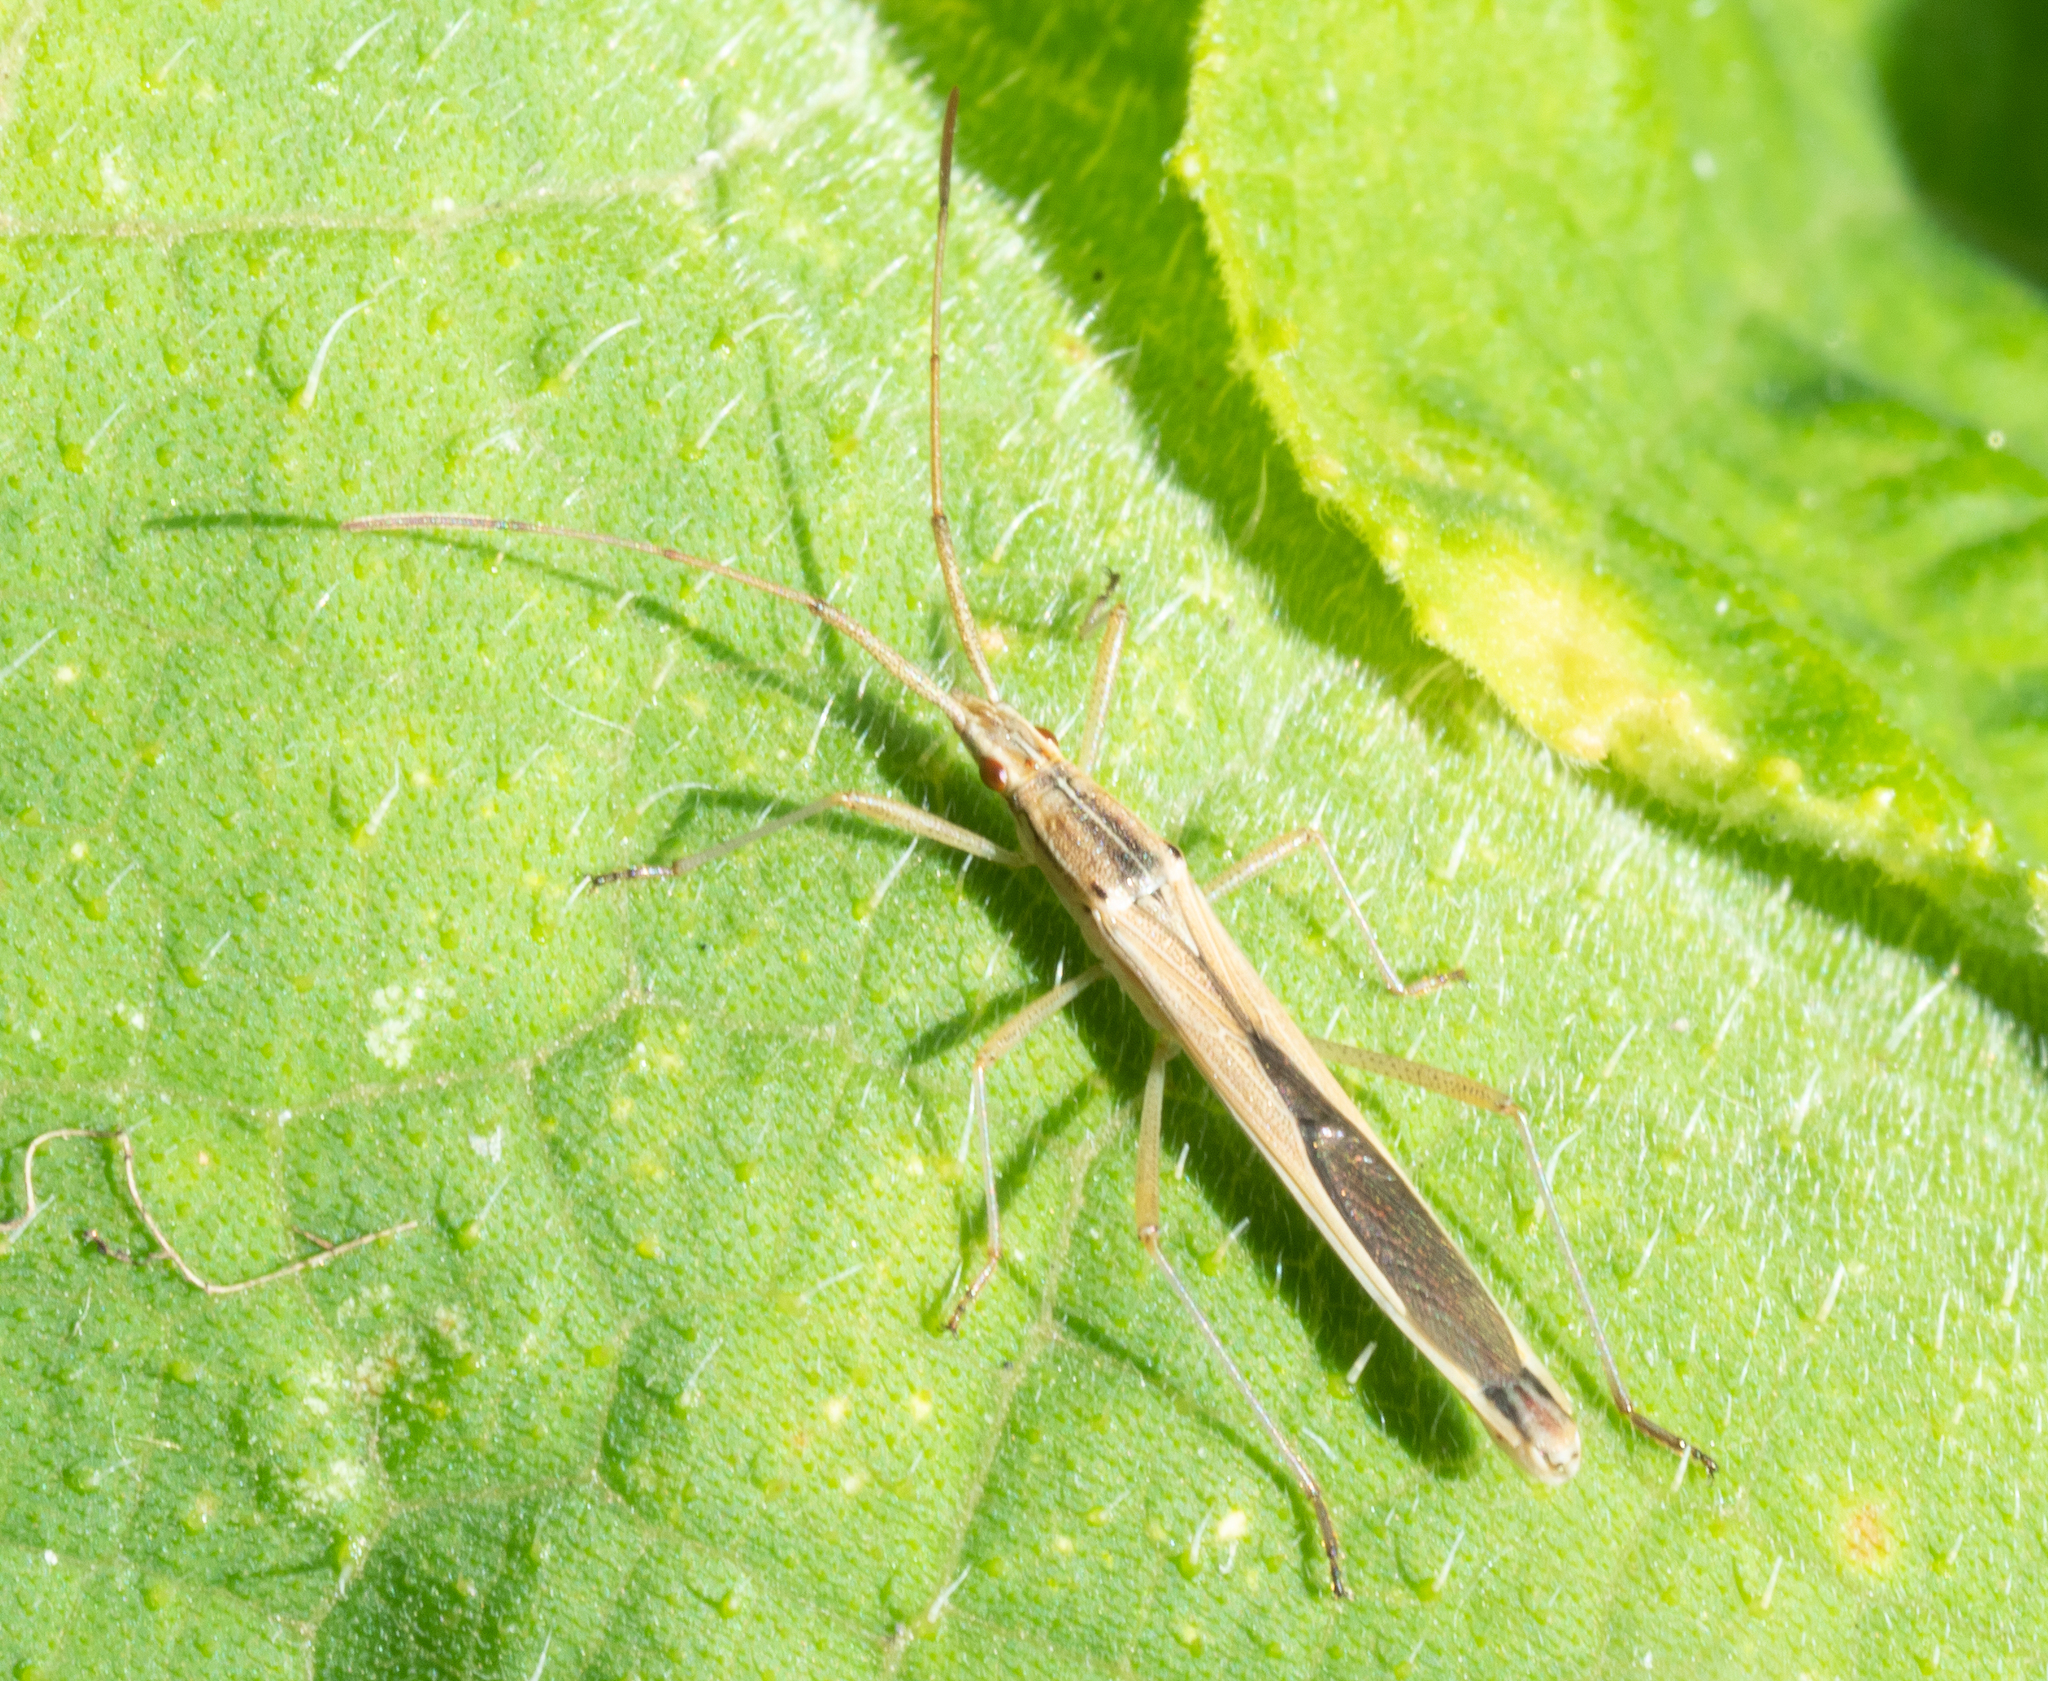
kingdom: Animalia
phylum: Arthropoda
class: Insecta
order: Hemiptera
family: Alydidae
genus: Mutusca
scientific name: Mutusca brevicornis
